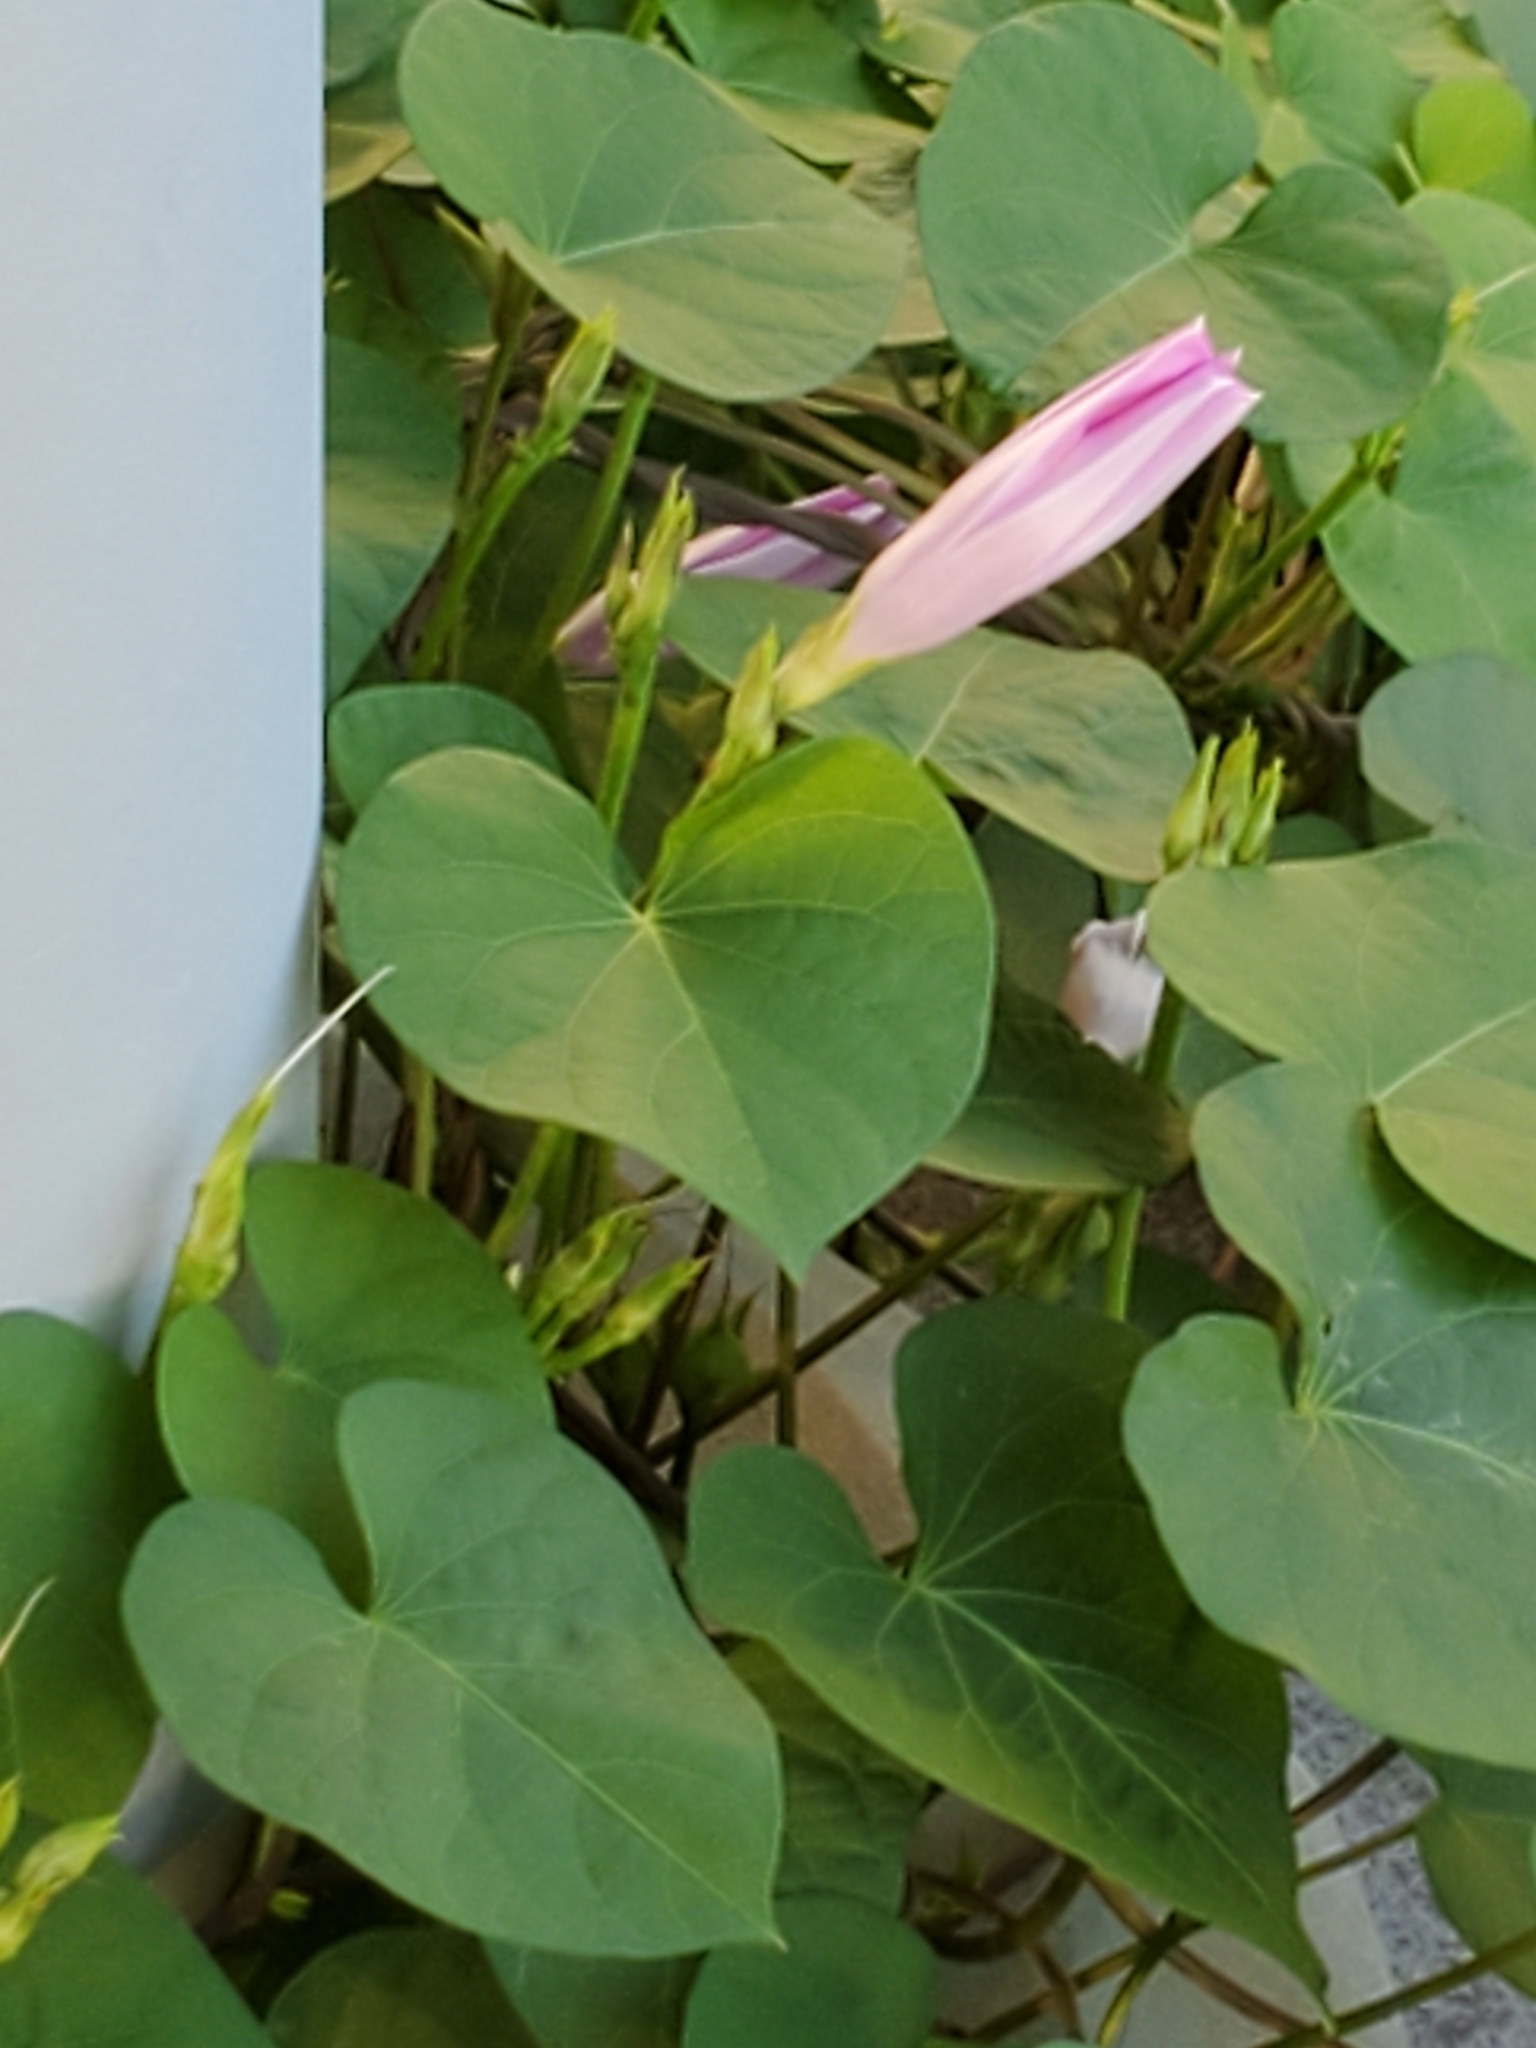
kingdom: Plantae
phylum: Tracheophyta
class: Magnoliopsida
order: Solanales
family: Convolvulaceae
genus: Ipomoea
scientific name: Ipomoea cordatotriloba
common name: Cotton morning glory
